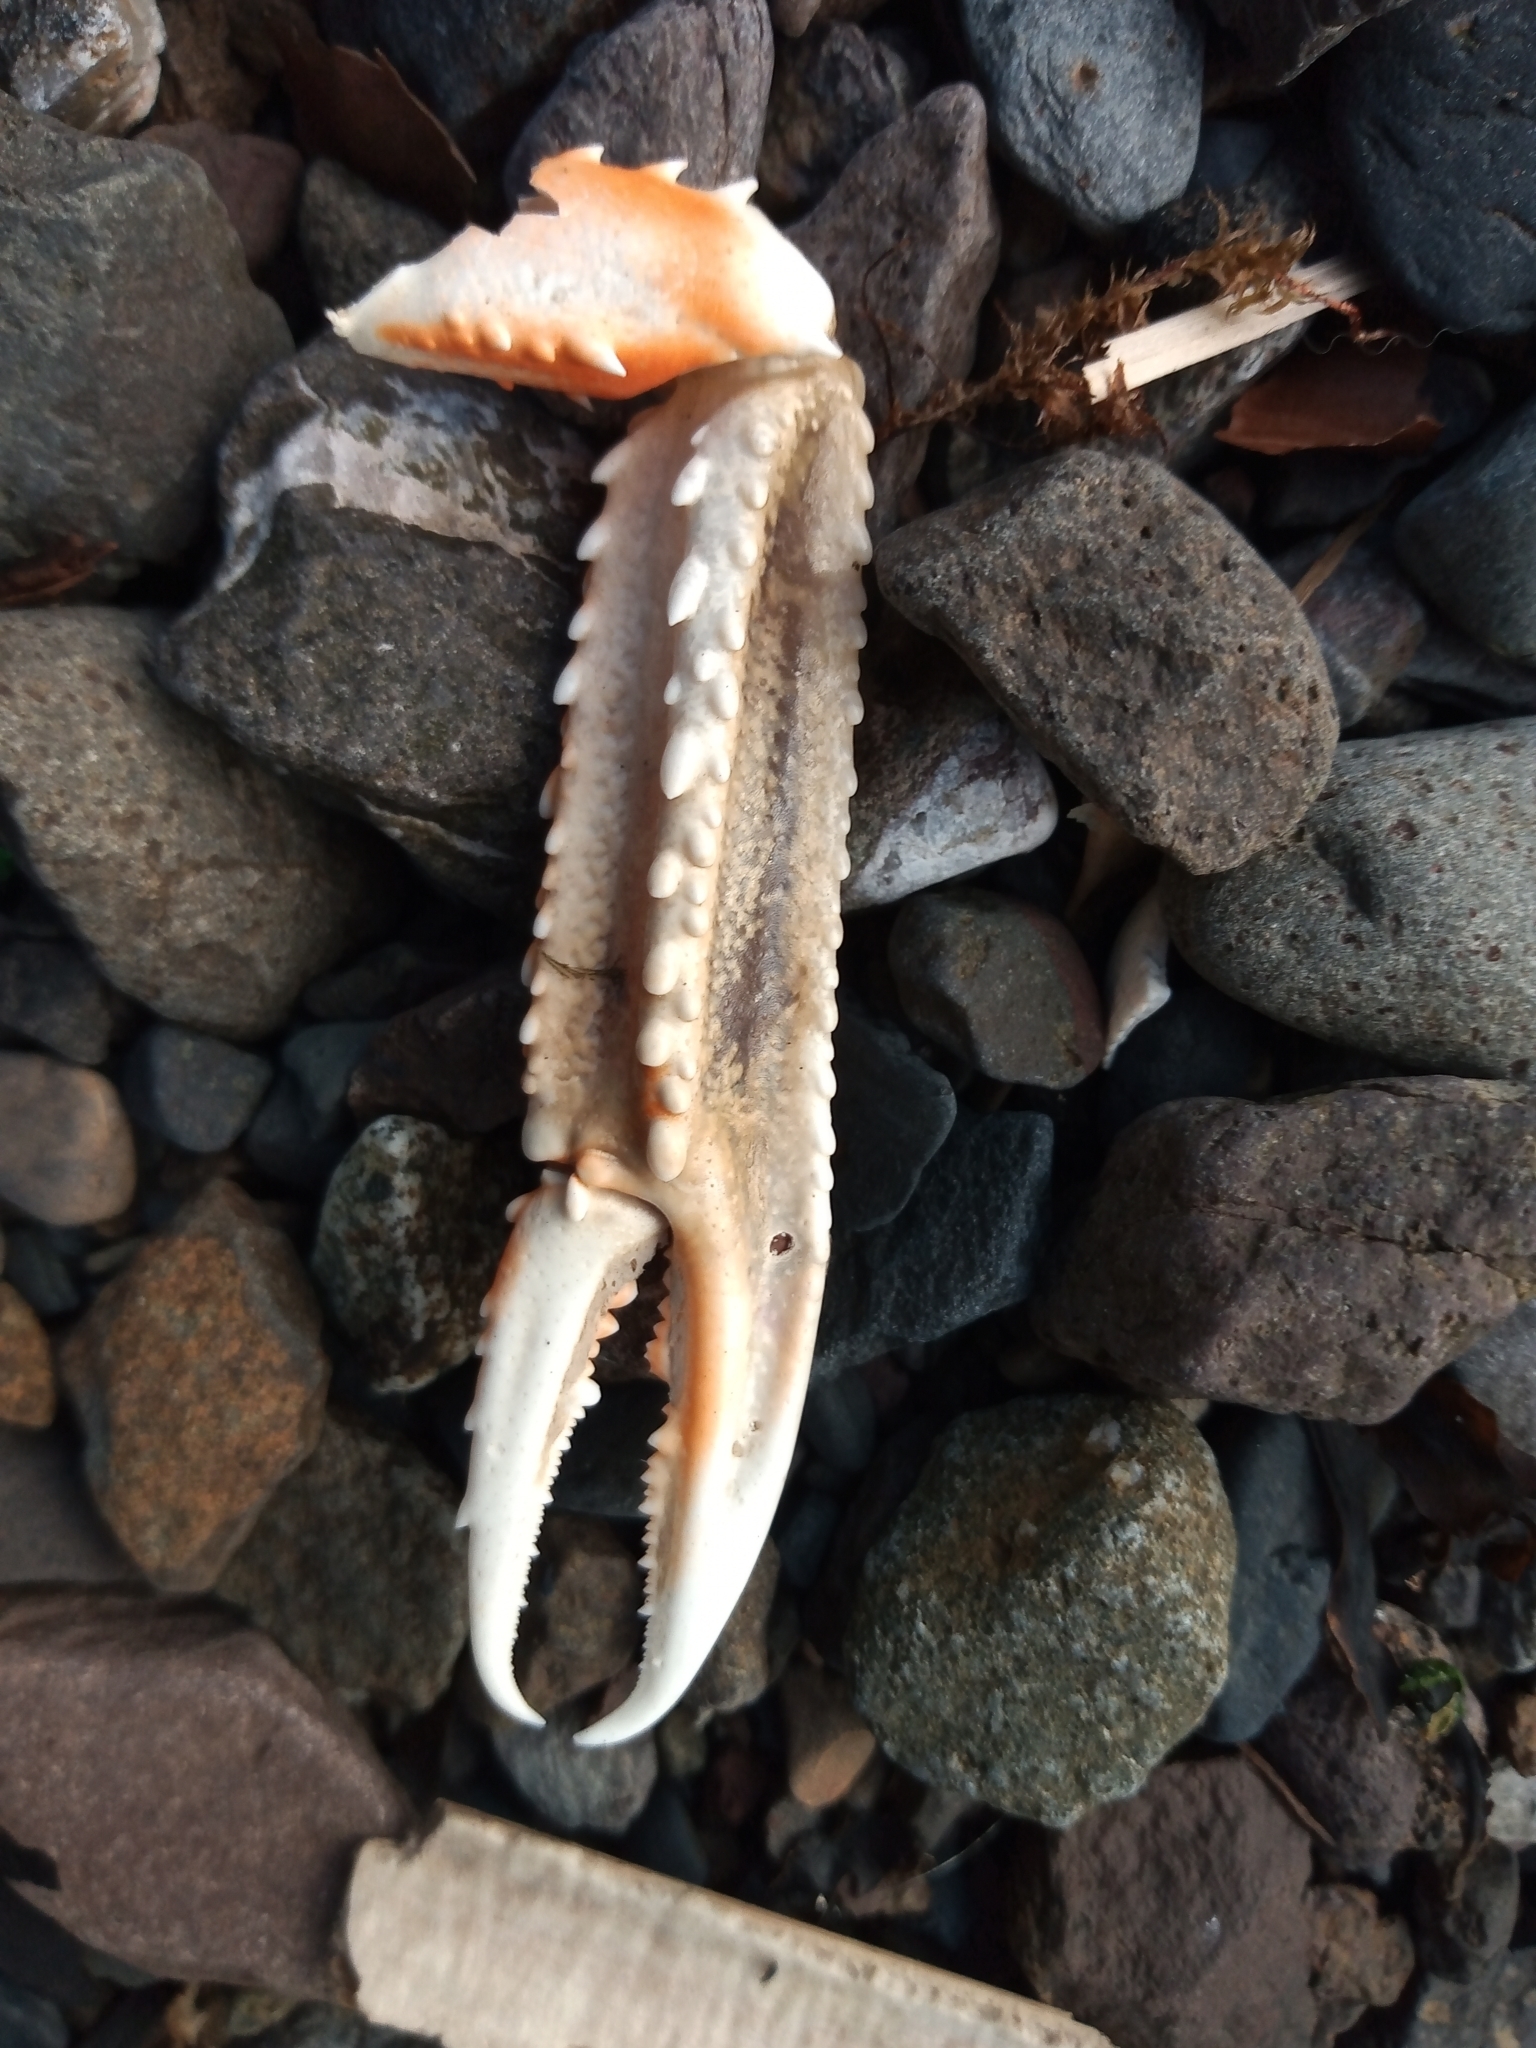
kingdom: Animalia
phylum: Arthropoda
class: Malacostraca
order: Decapoda
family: Nephropidae
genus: Nephrops
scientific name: Nephrops norvegicus
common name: Norway lobster
